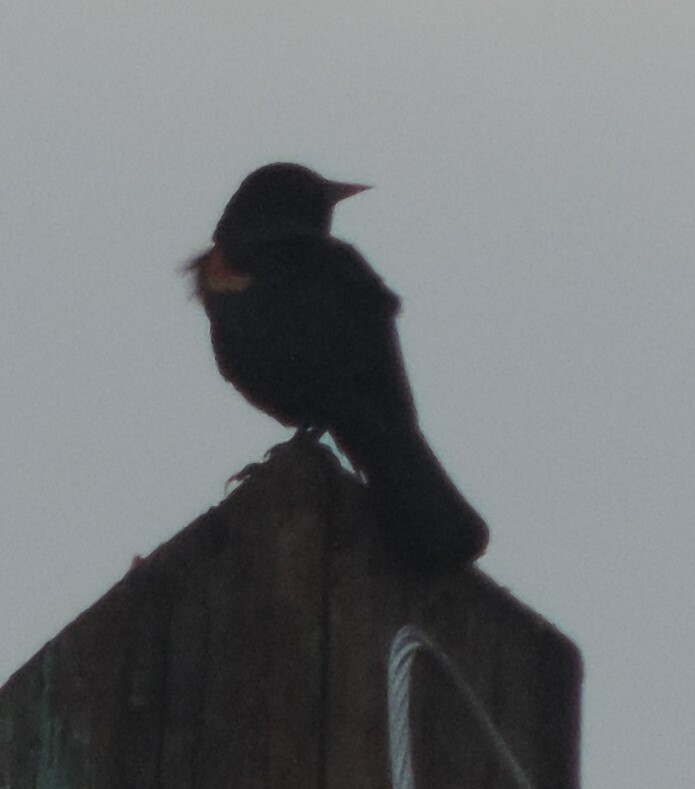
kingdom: Animalia
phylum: Chordata
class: Aves
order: Passeriformes
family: Icteridae
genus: Agelaius
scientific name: Agelaius phoeniceus
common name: Red-winged blackbird
